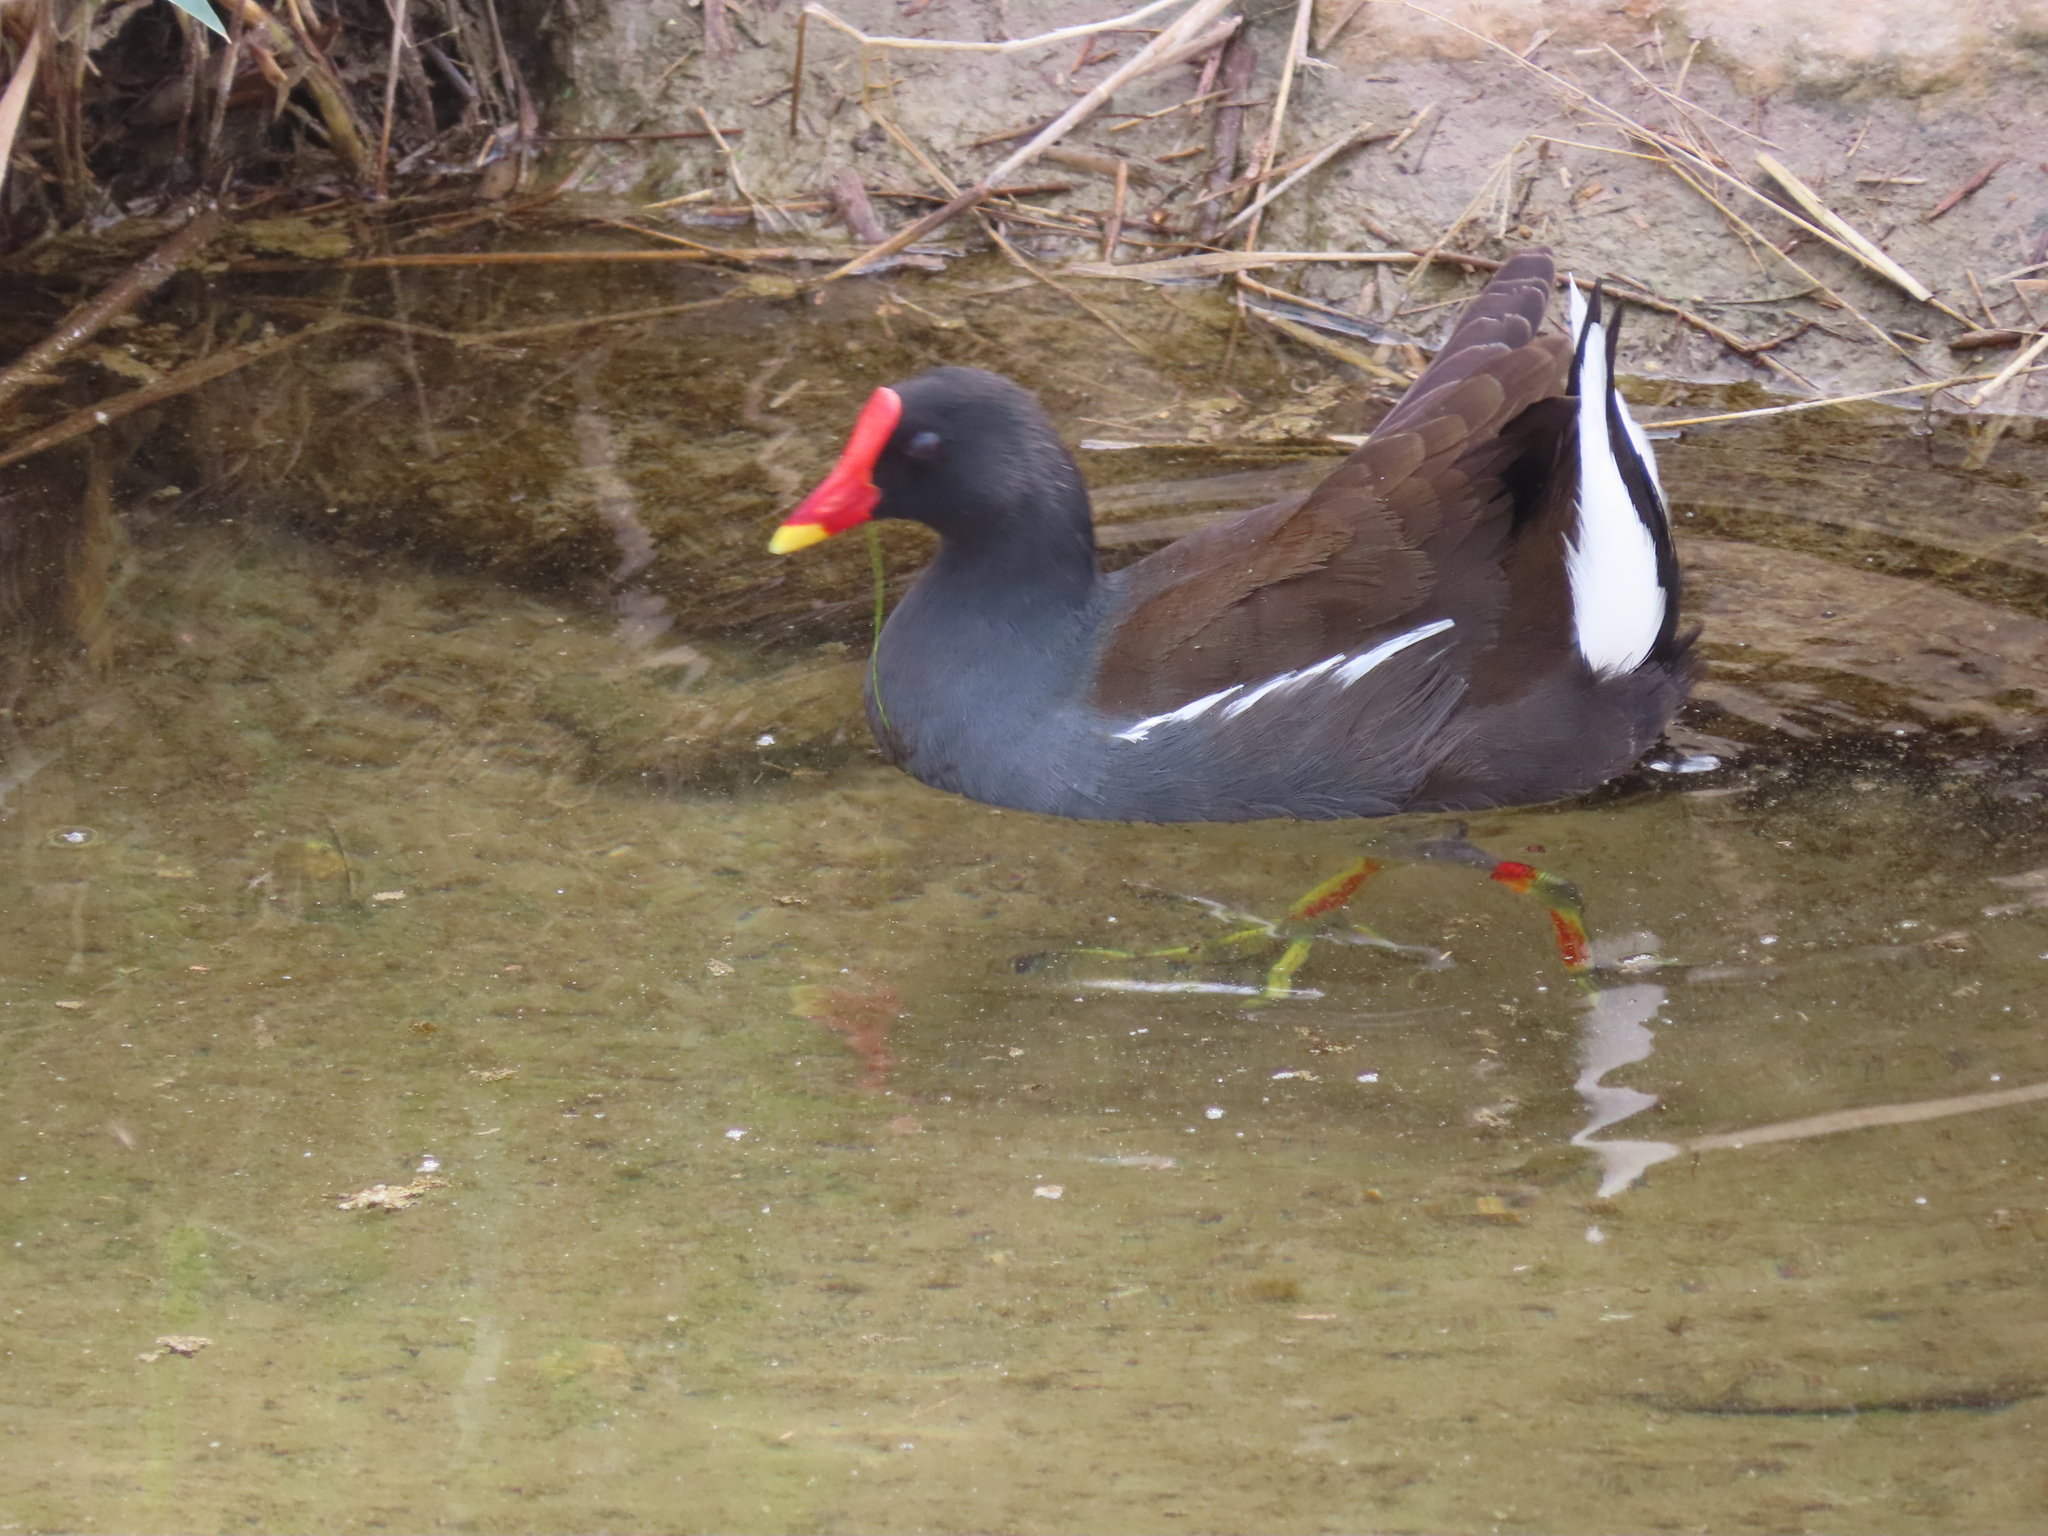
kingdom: Animalia
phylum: Chordata
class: Aves
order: Gruiformes
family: Rallidae
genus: Gallinula
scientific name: Gallinula chloropus
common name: Common moorhen
